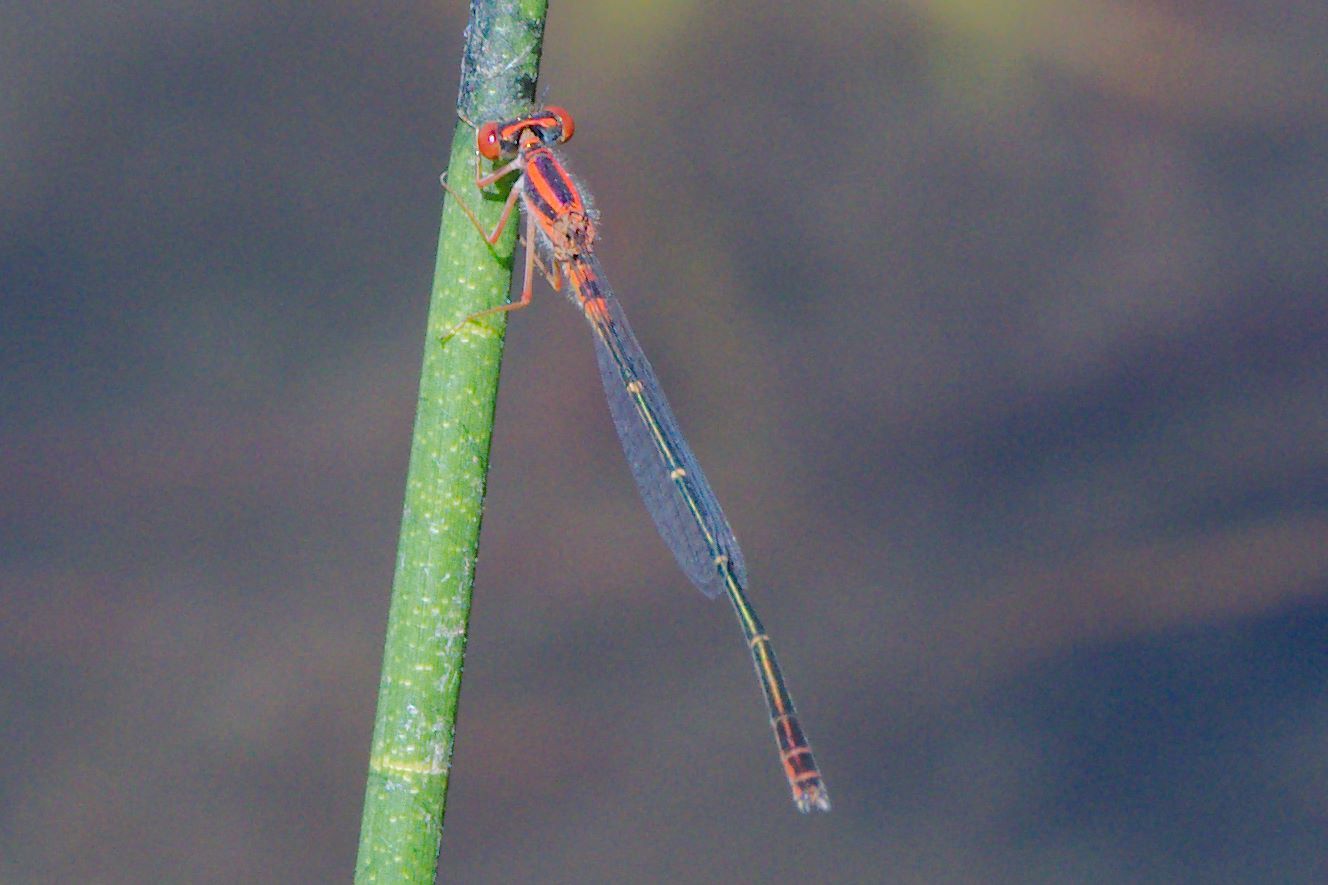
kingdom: Animalia
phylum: Arthropoda
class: Insecta
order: Odonata
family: Coenagrionidae
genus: Enallagma
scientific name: Enallagma concisum
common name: Cherry bluet
